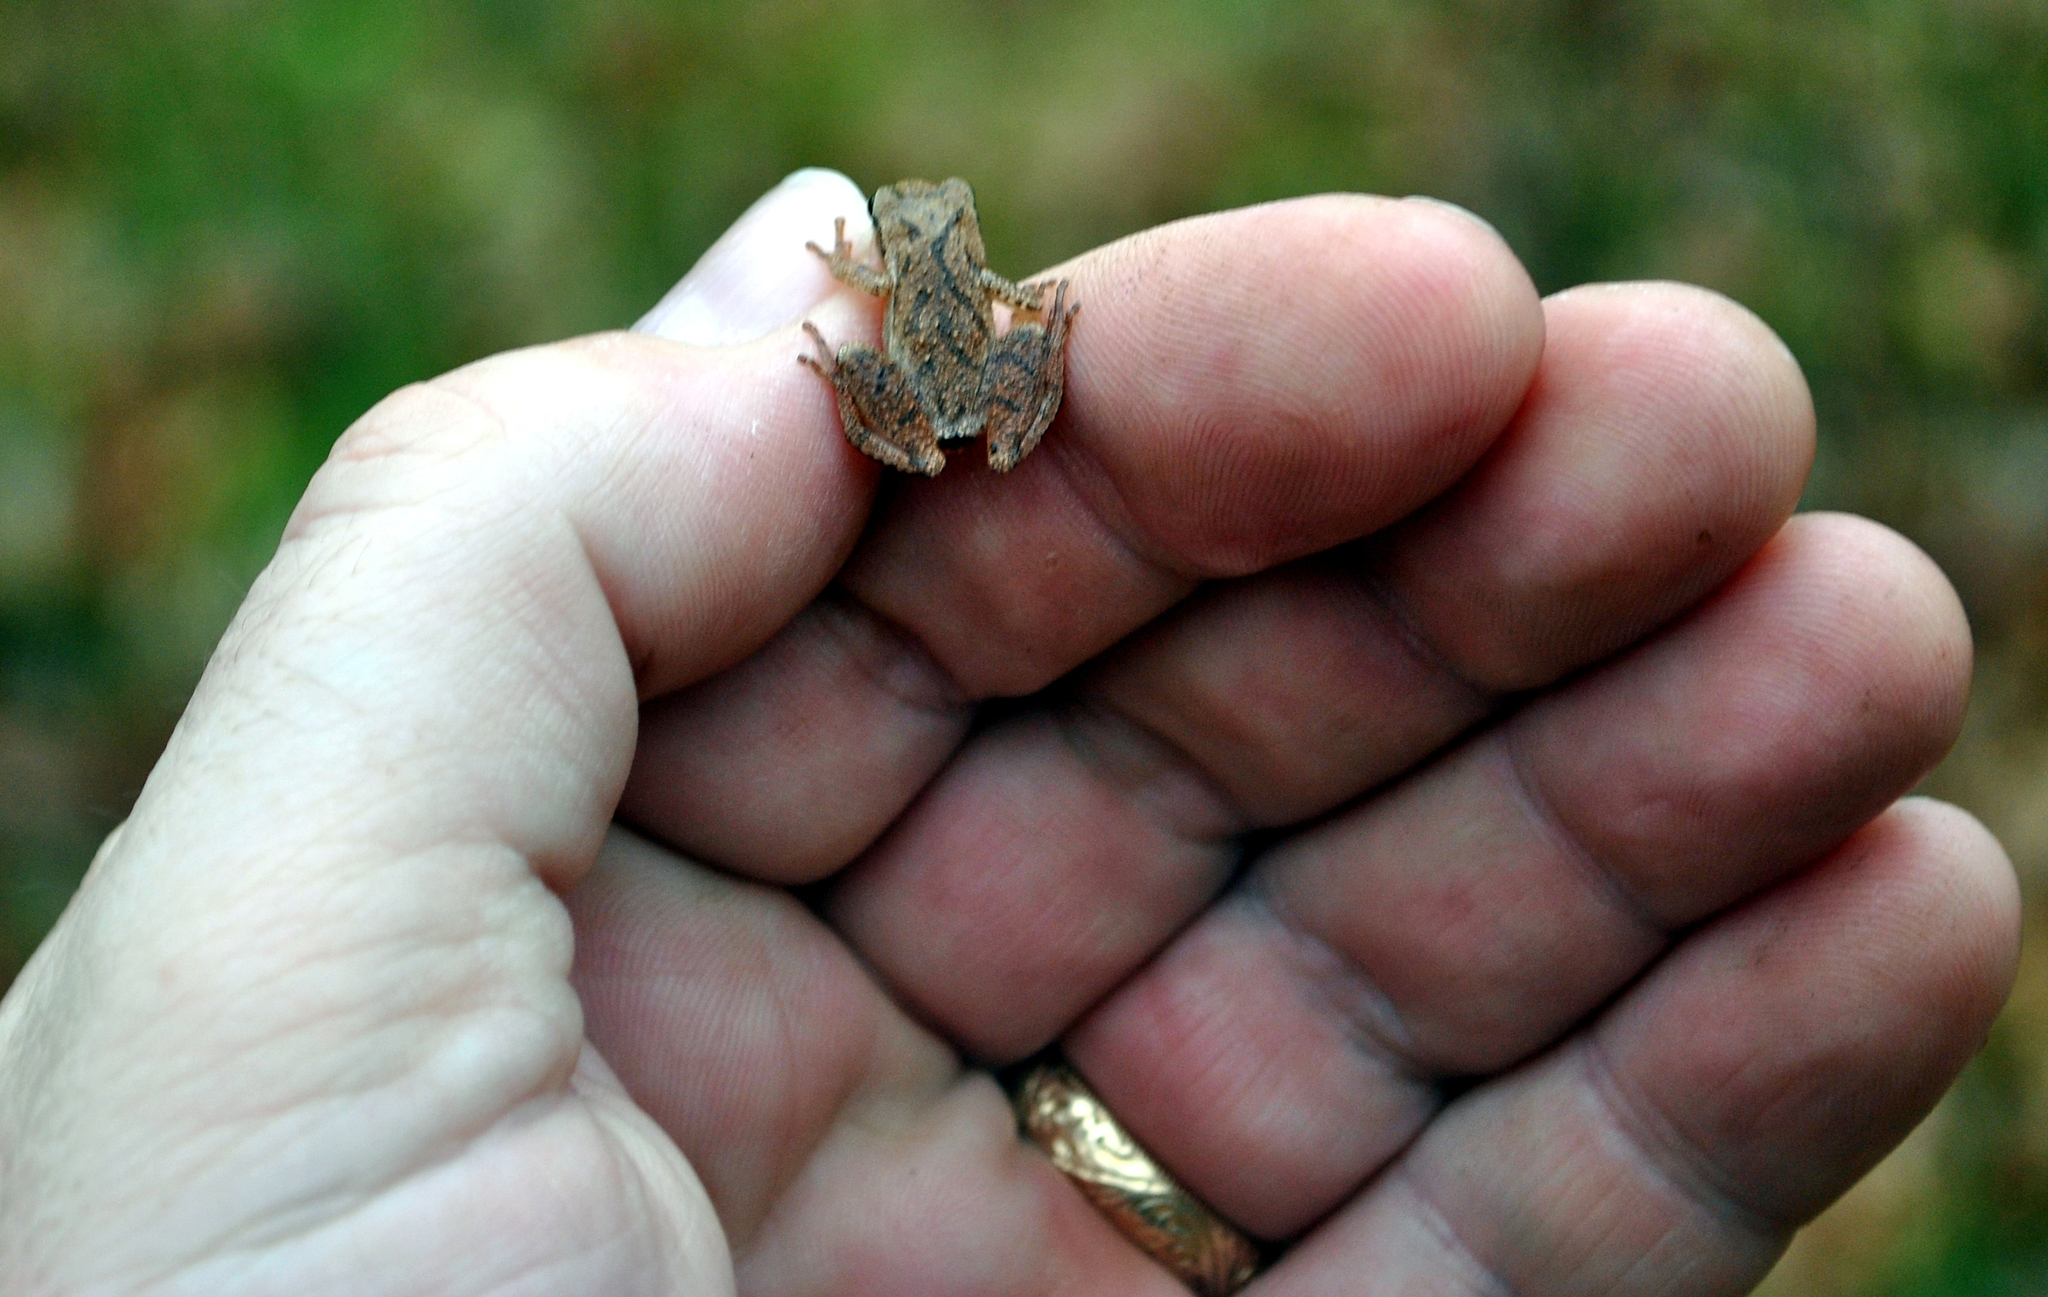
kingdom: Animalia
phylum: Chordata
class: Amphibia
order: Anura
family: Hylidae
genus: Pseudacris
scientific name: Pseudacris crucifer
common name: Spring peeper
